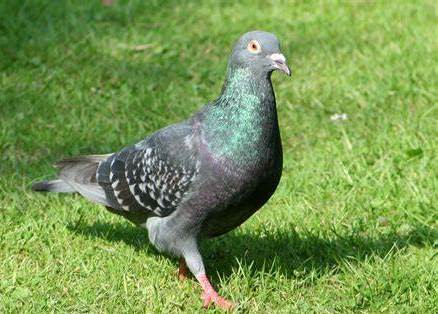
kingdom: Animalia
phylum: Chordata
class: Aves
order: Columbiformes
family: Columbidae
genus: Columba
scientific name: Columba livia
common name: Rock pigeon
